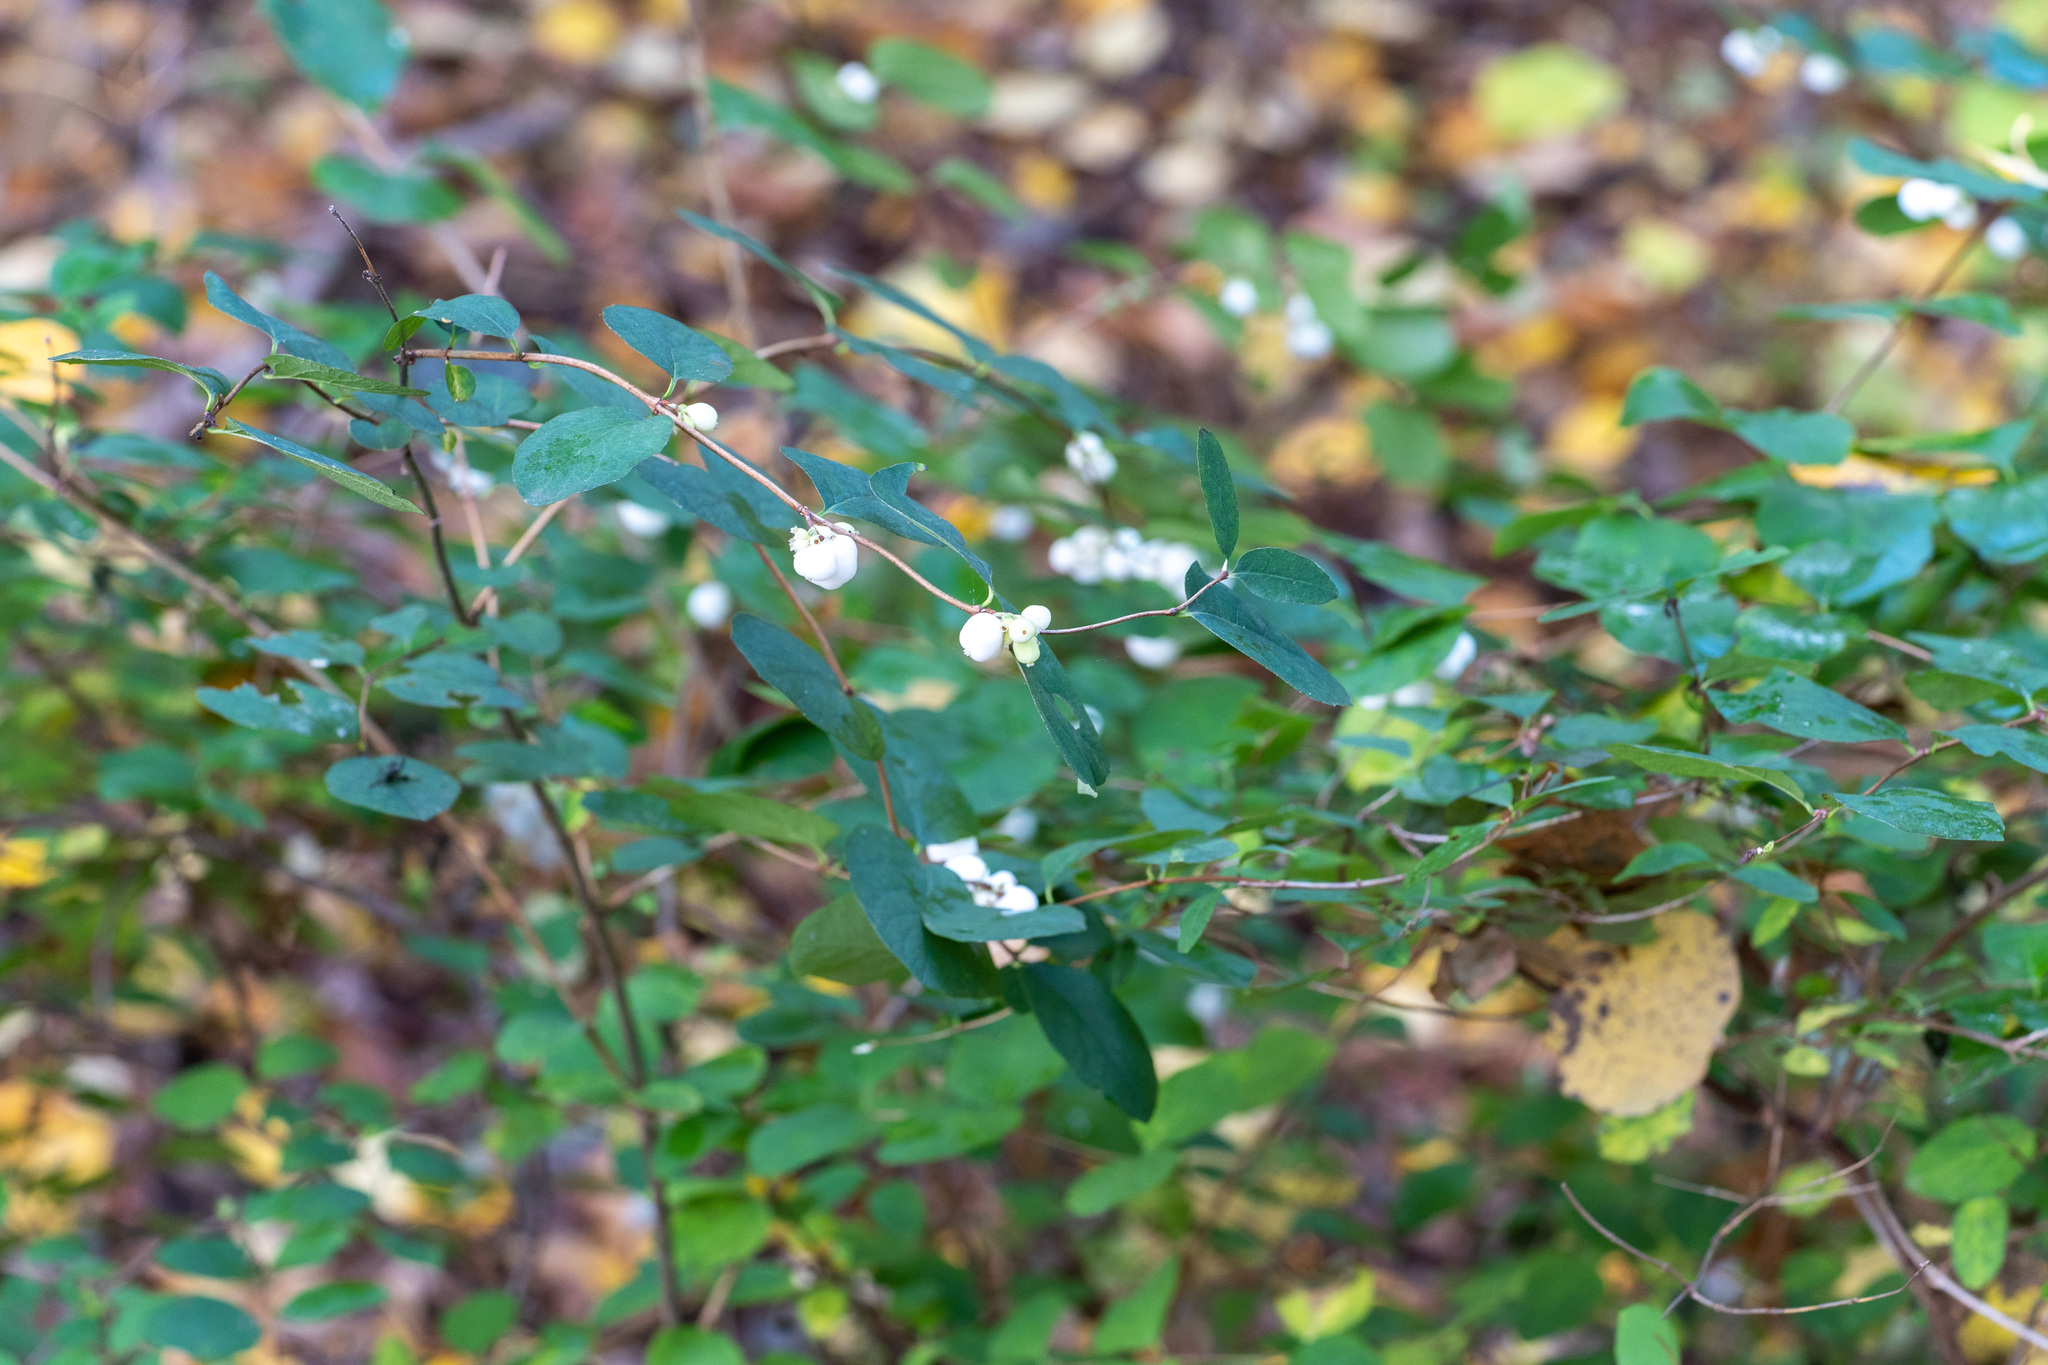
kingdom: Plantae
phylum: Tracheophyta
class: Magnoliopsida
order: Dipsacales
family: Caprifoliaceae
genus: Symphoricarpos
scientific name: Symphoricarpos albus
